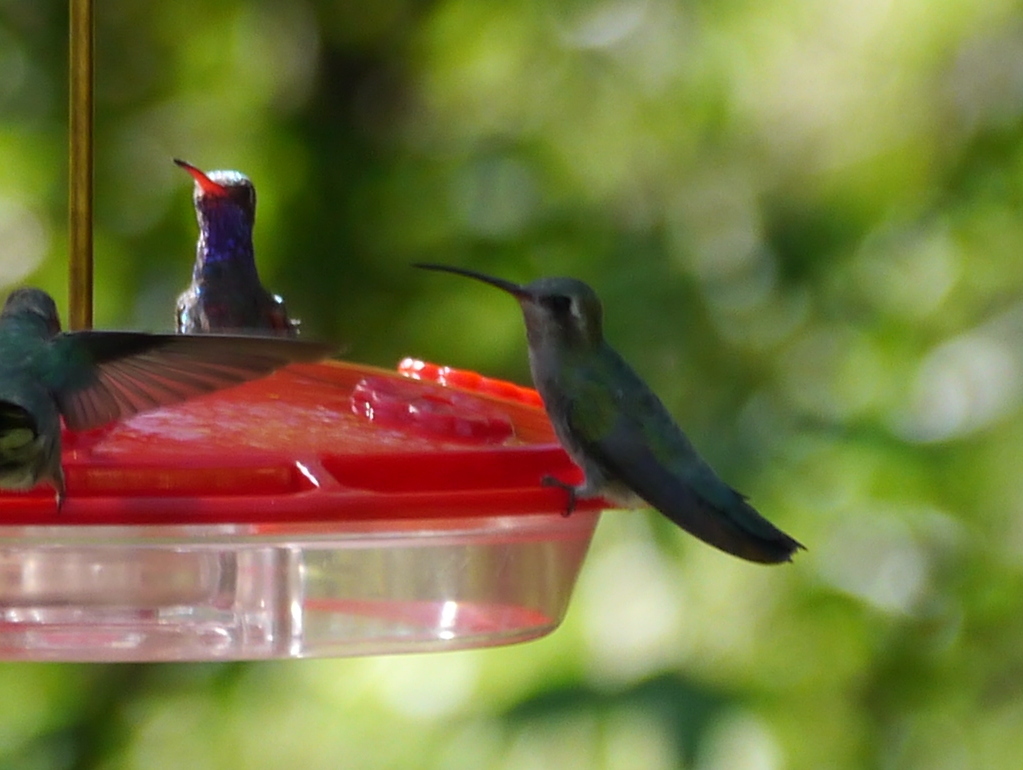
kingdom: Animalia
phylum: Chordata
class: Aves
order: Apodiformes
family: Trochilidae
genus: Cynanthus
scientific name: Cynanthus latirostris
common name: Broad-billed hummingbird
